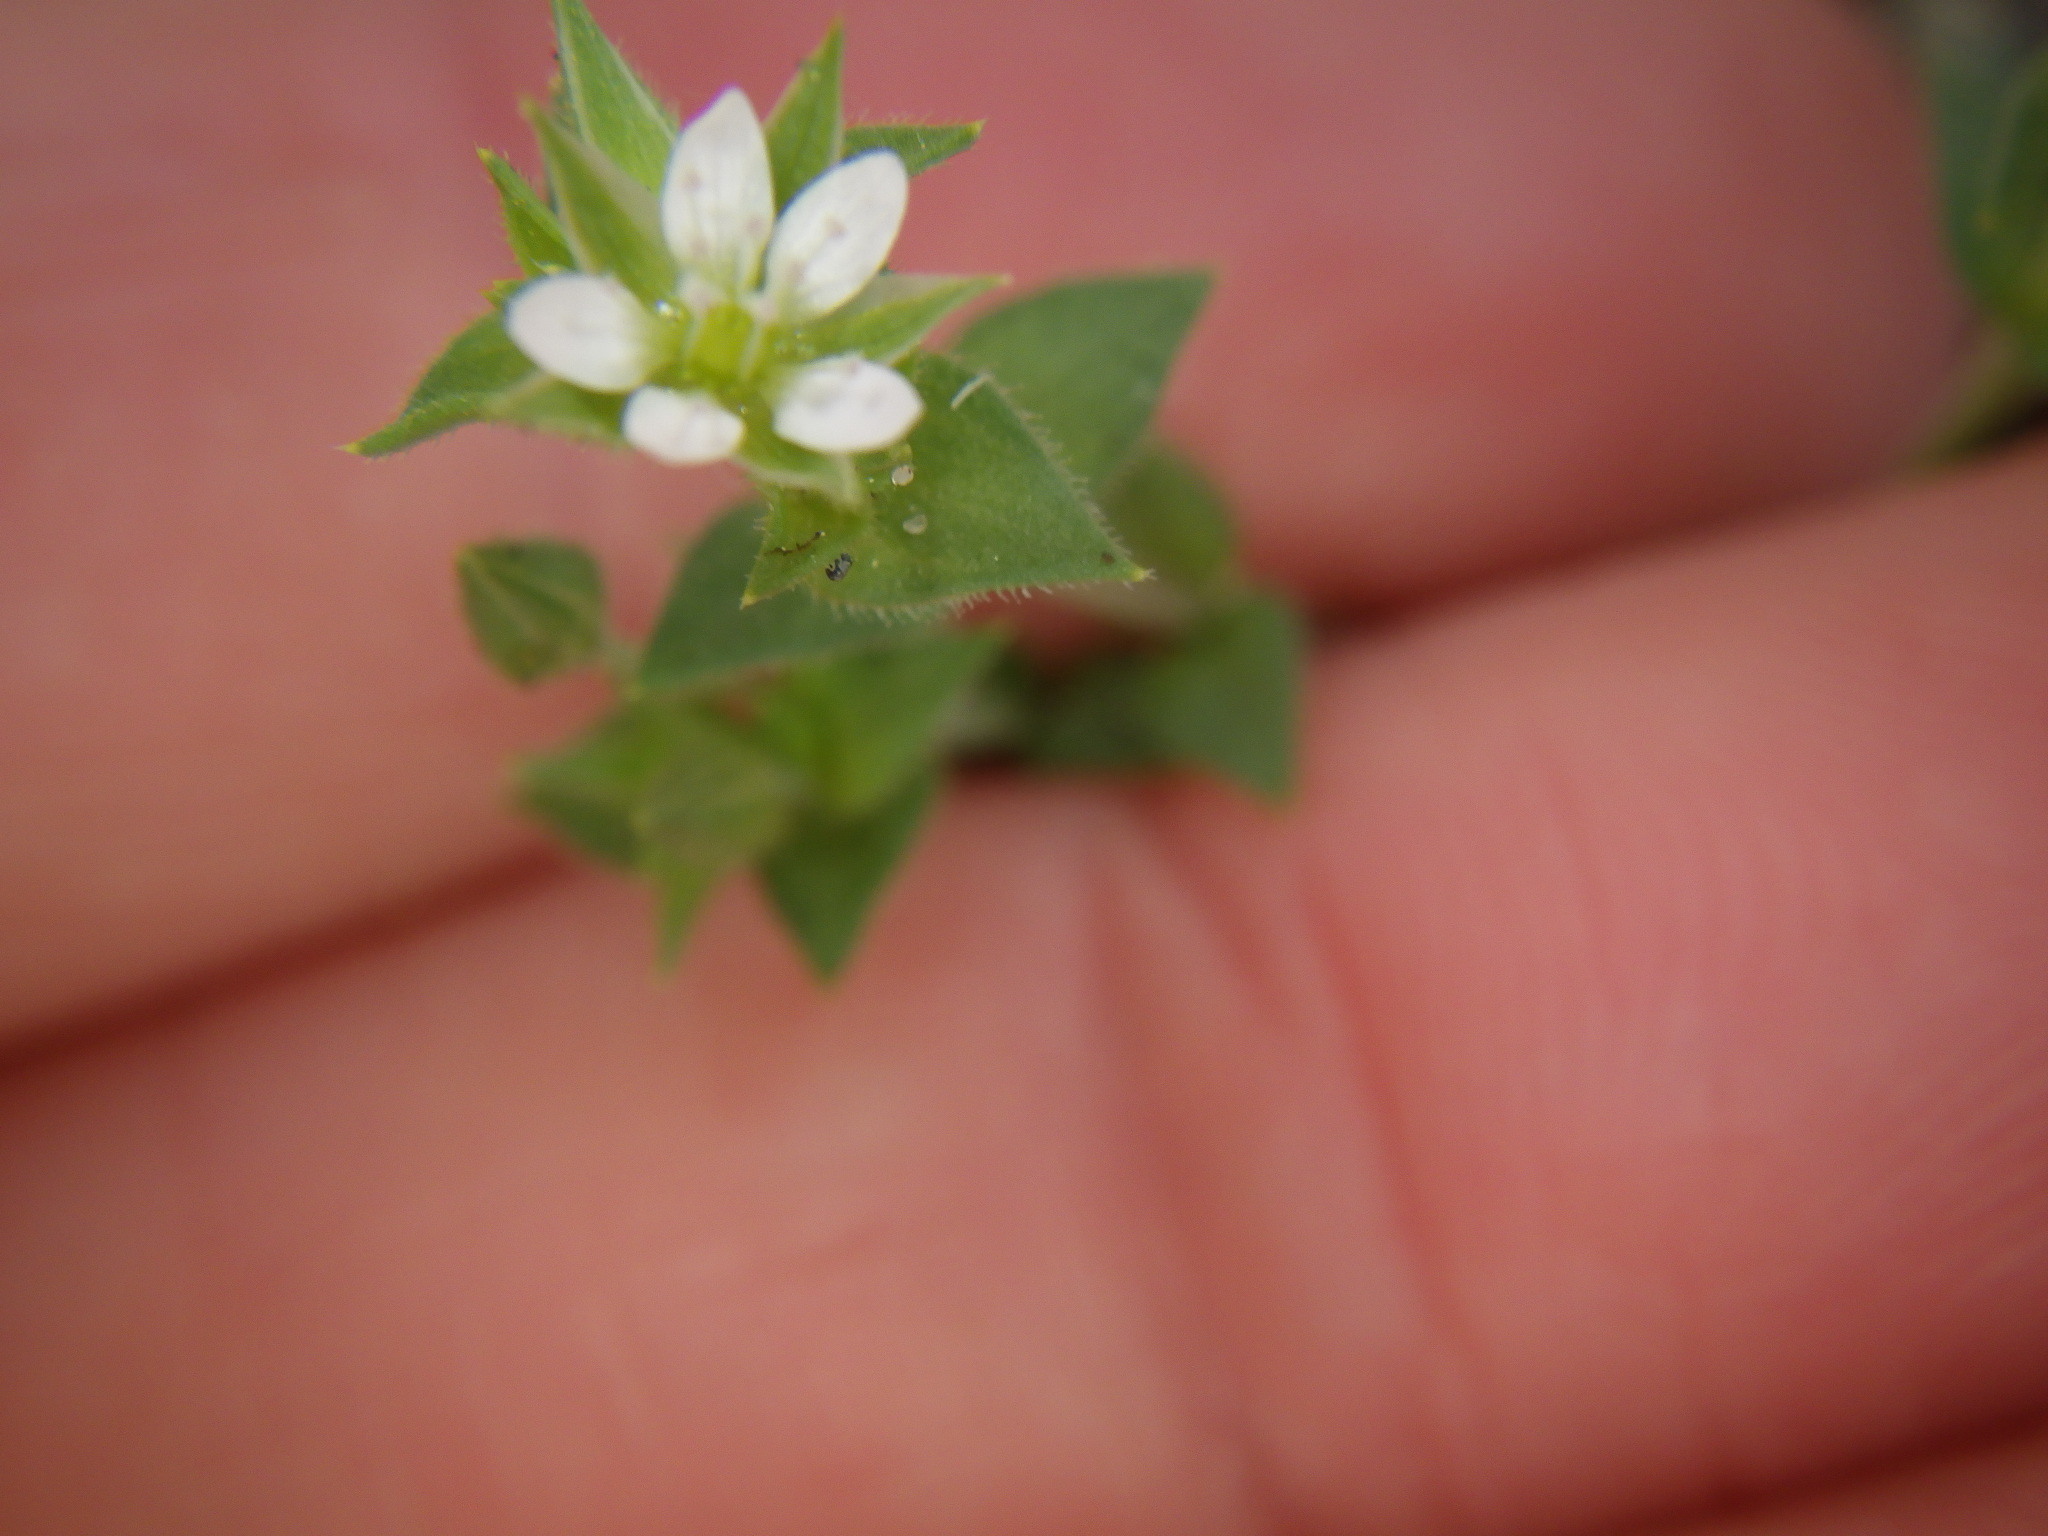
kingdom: Plantae
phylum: Tracheophyta
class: Magnoliopsida
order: Caryophyllales
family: Caryophyllaceae
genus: Arenaria
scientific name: Arenaria serpyllifolia
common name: Thyme-leaved sandwort
